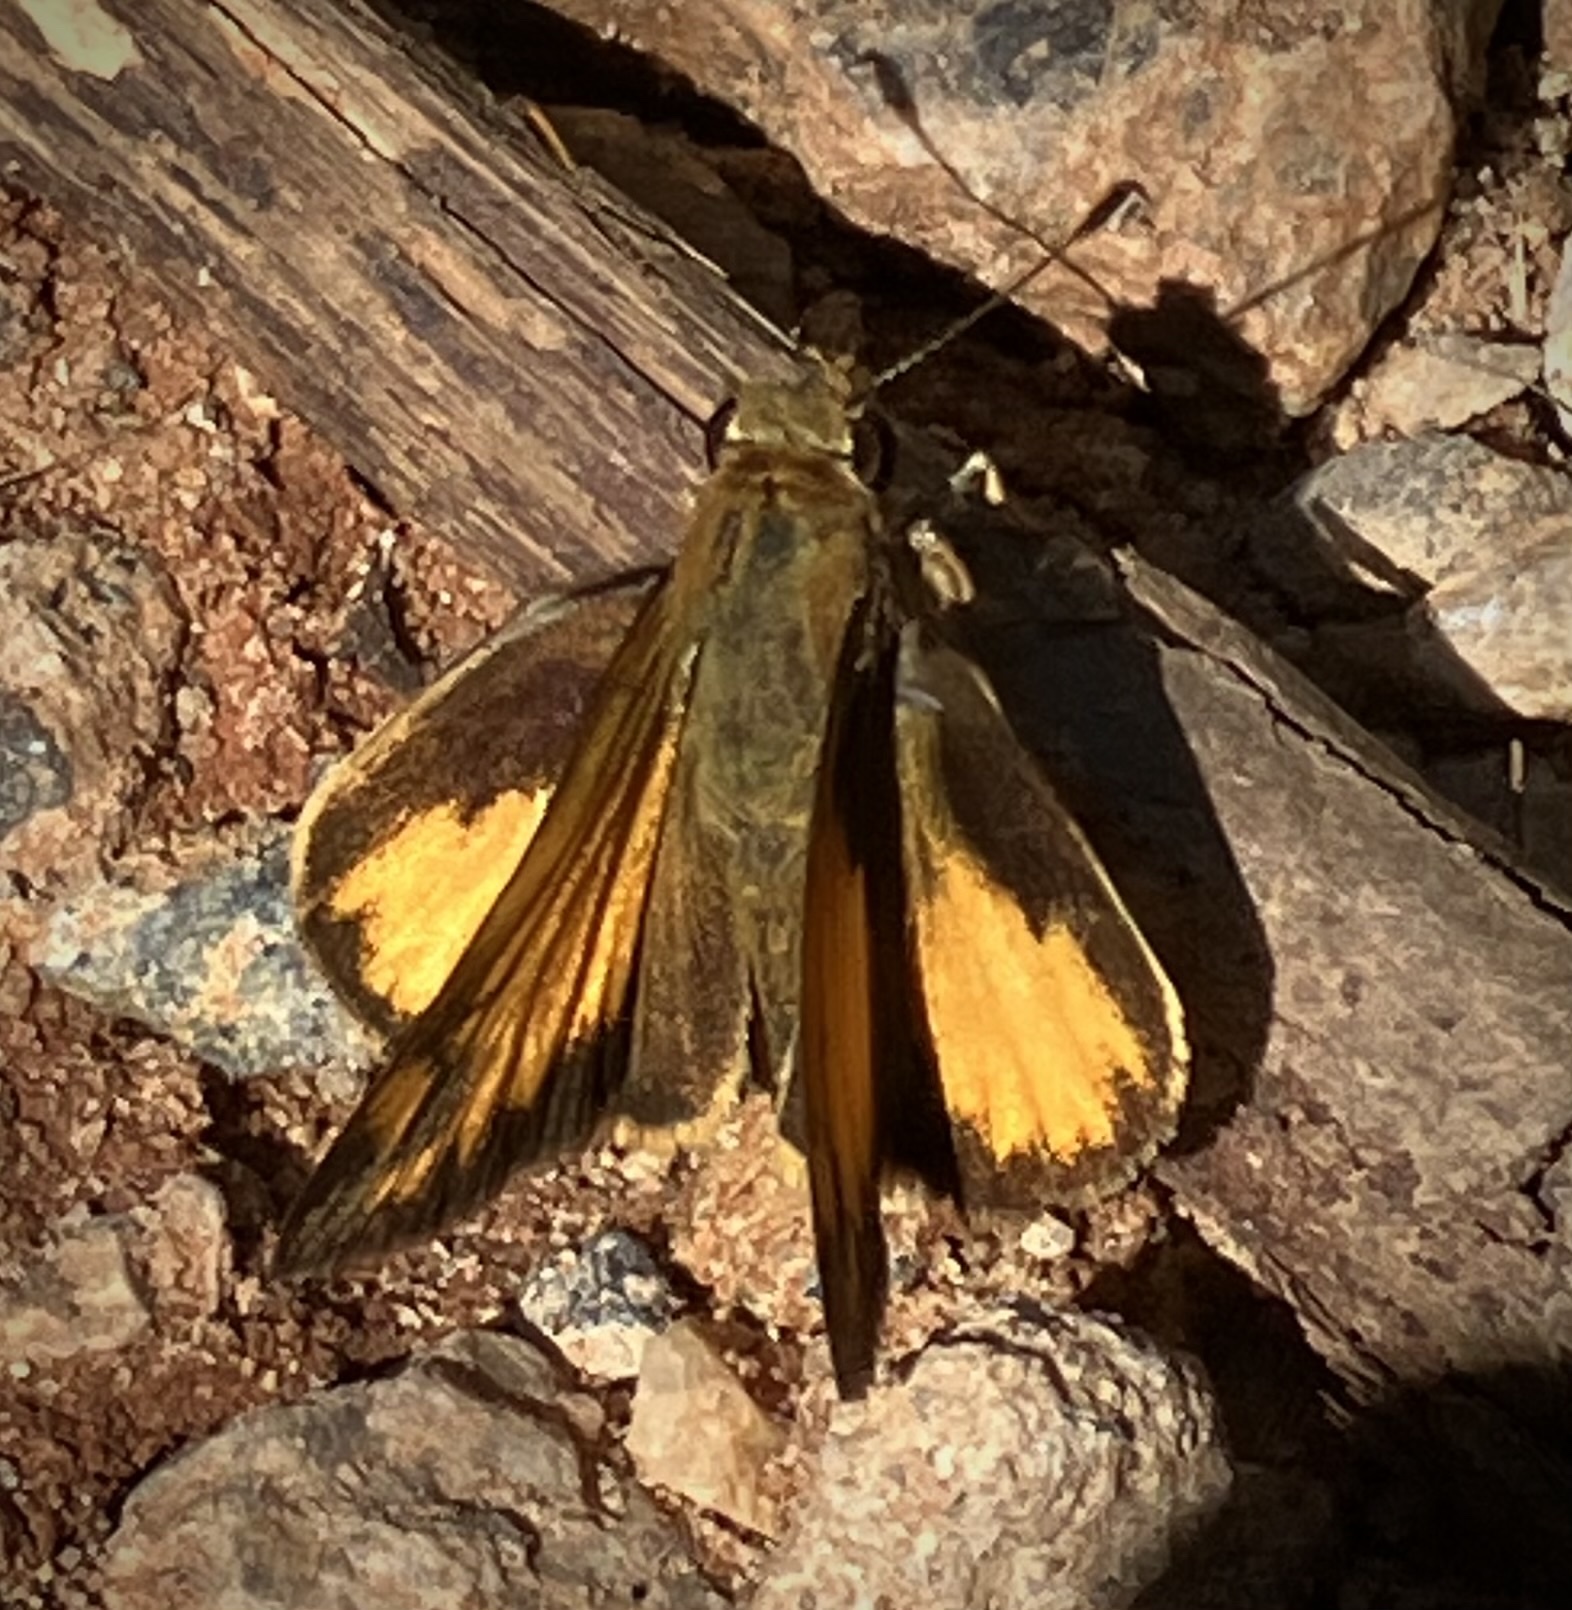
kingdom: Animalia
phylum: Arthropoda
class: Insecta
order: Lepidoptera
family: Hesperiidae
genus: Lon
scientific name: Lon zabulon
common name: Zabulon skipper
